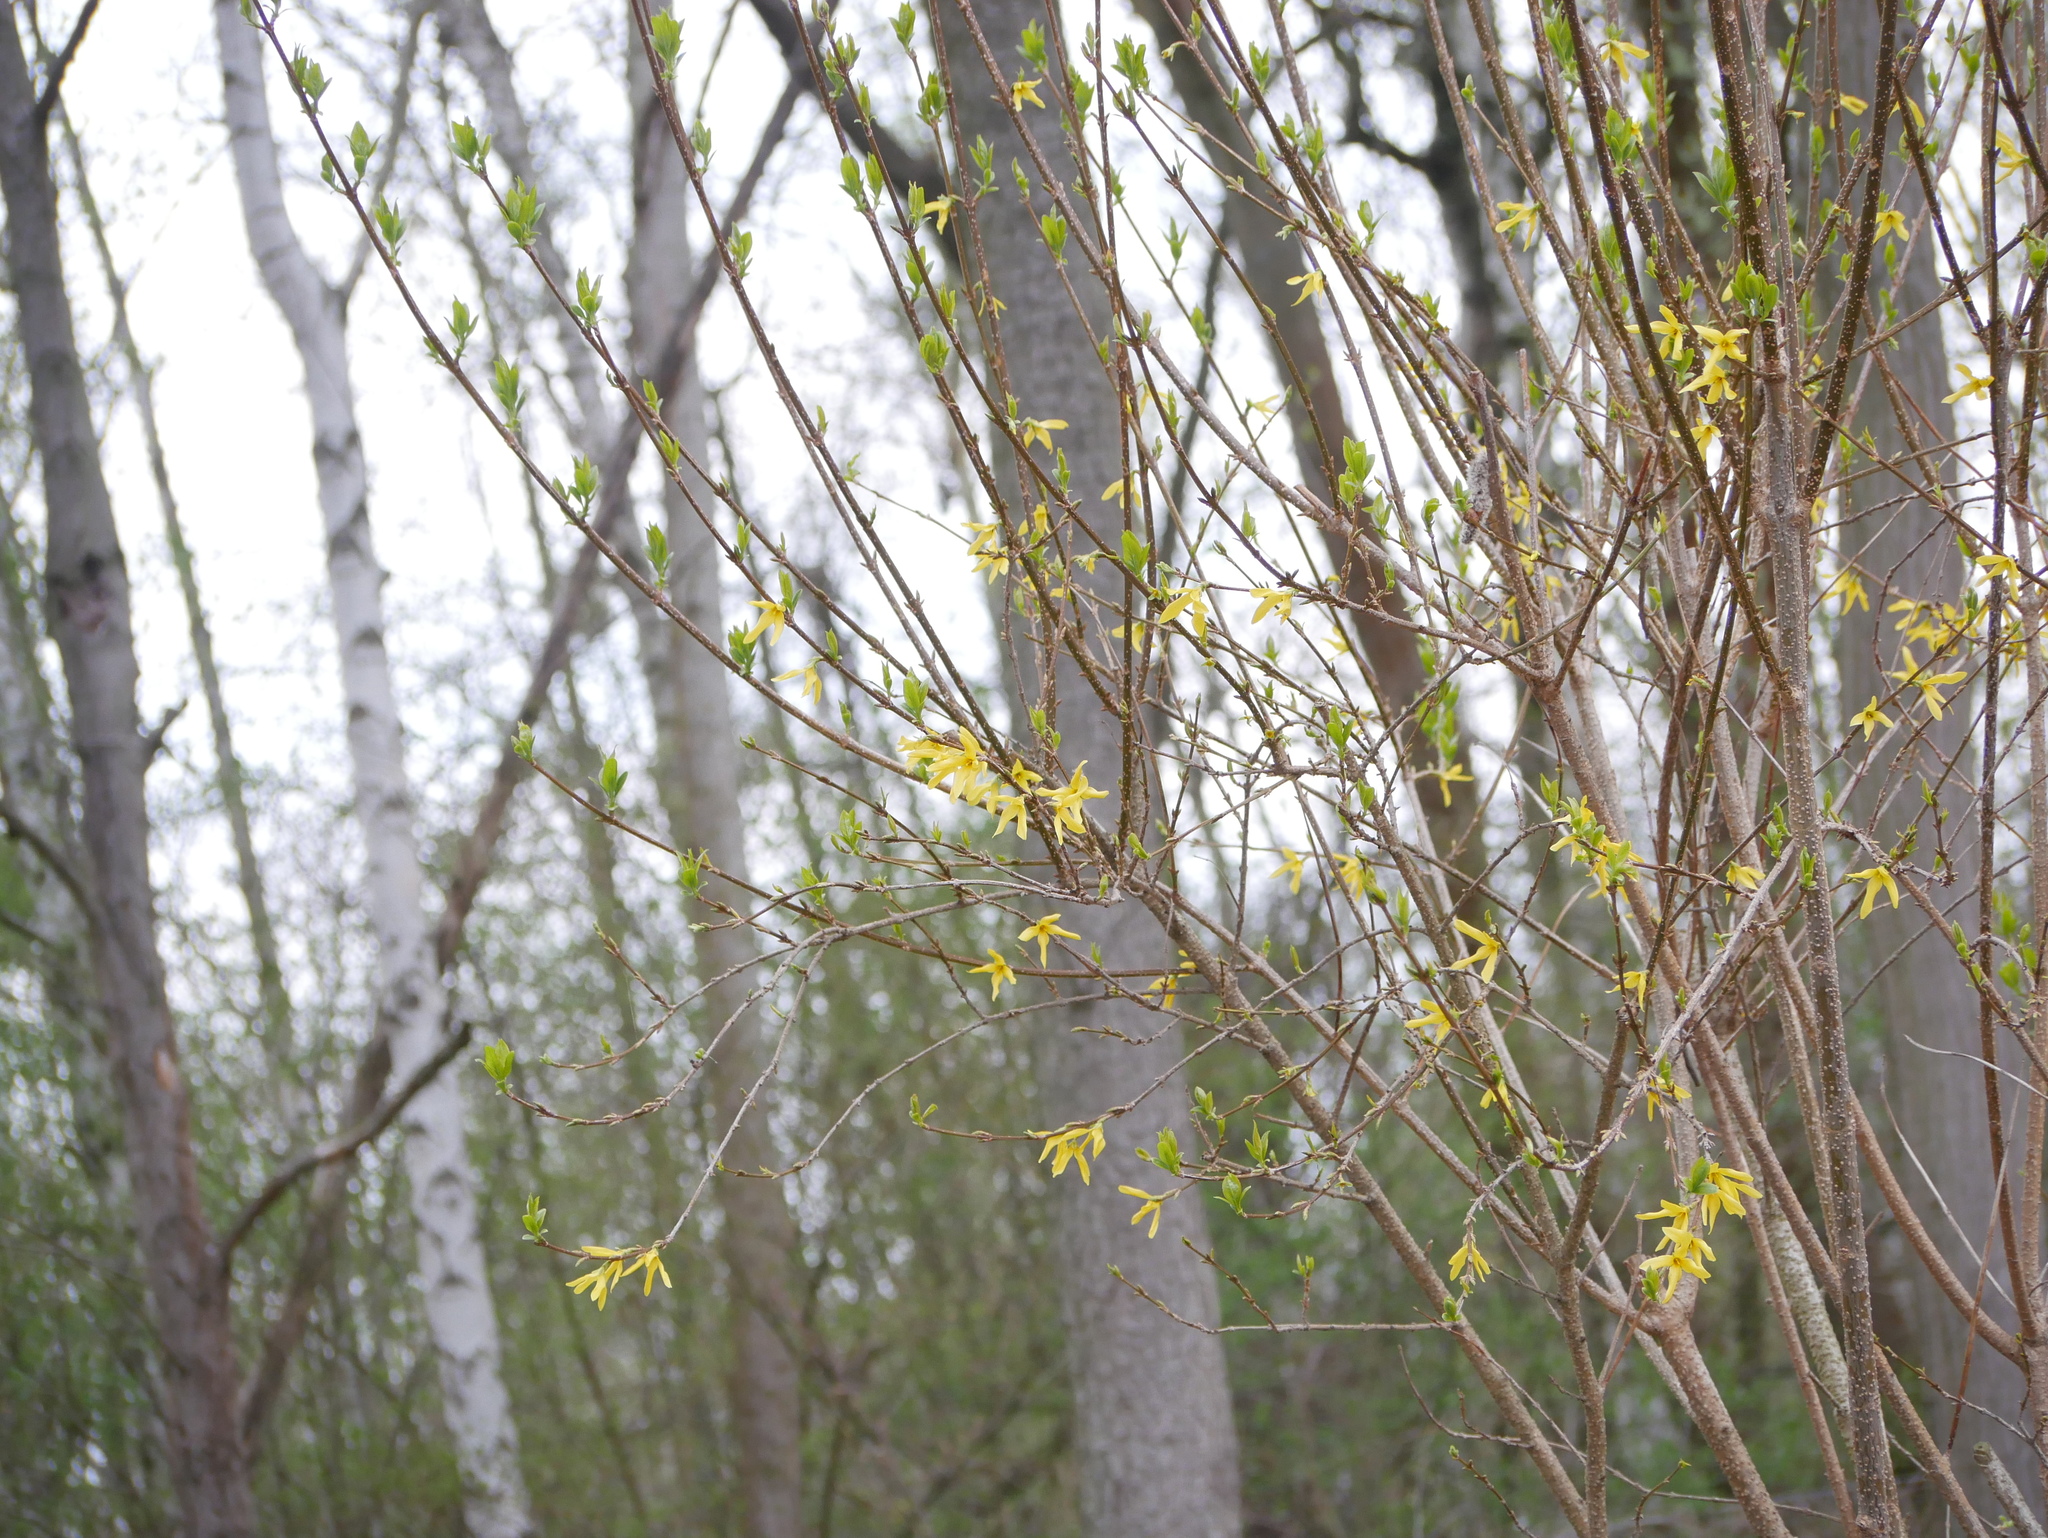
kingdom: Plantae
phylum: Tracheophyta
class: Magnoliopsida
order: Lamiales
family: Oleaceae
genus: Forsythia
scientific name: Forsythia intermedia
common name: Forsythia
